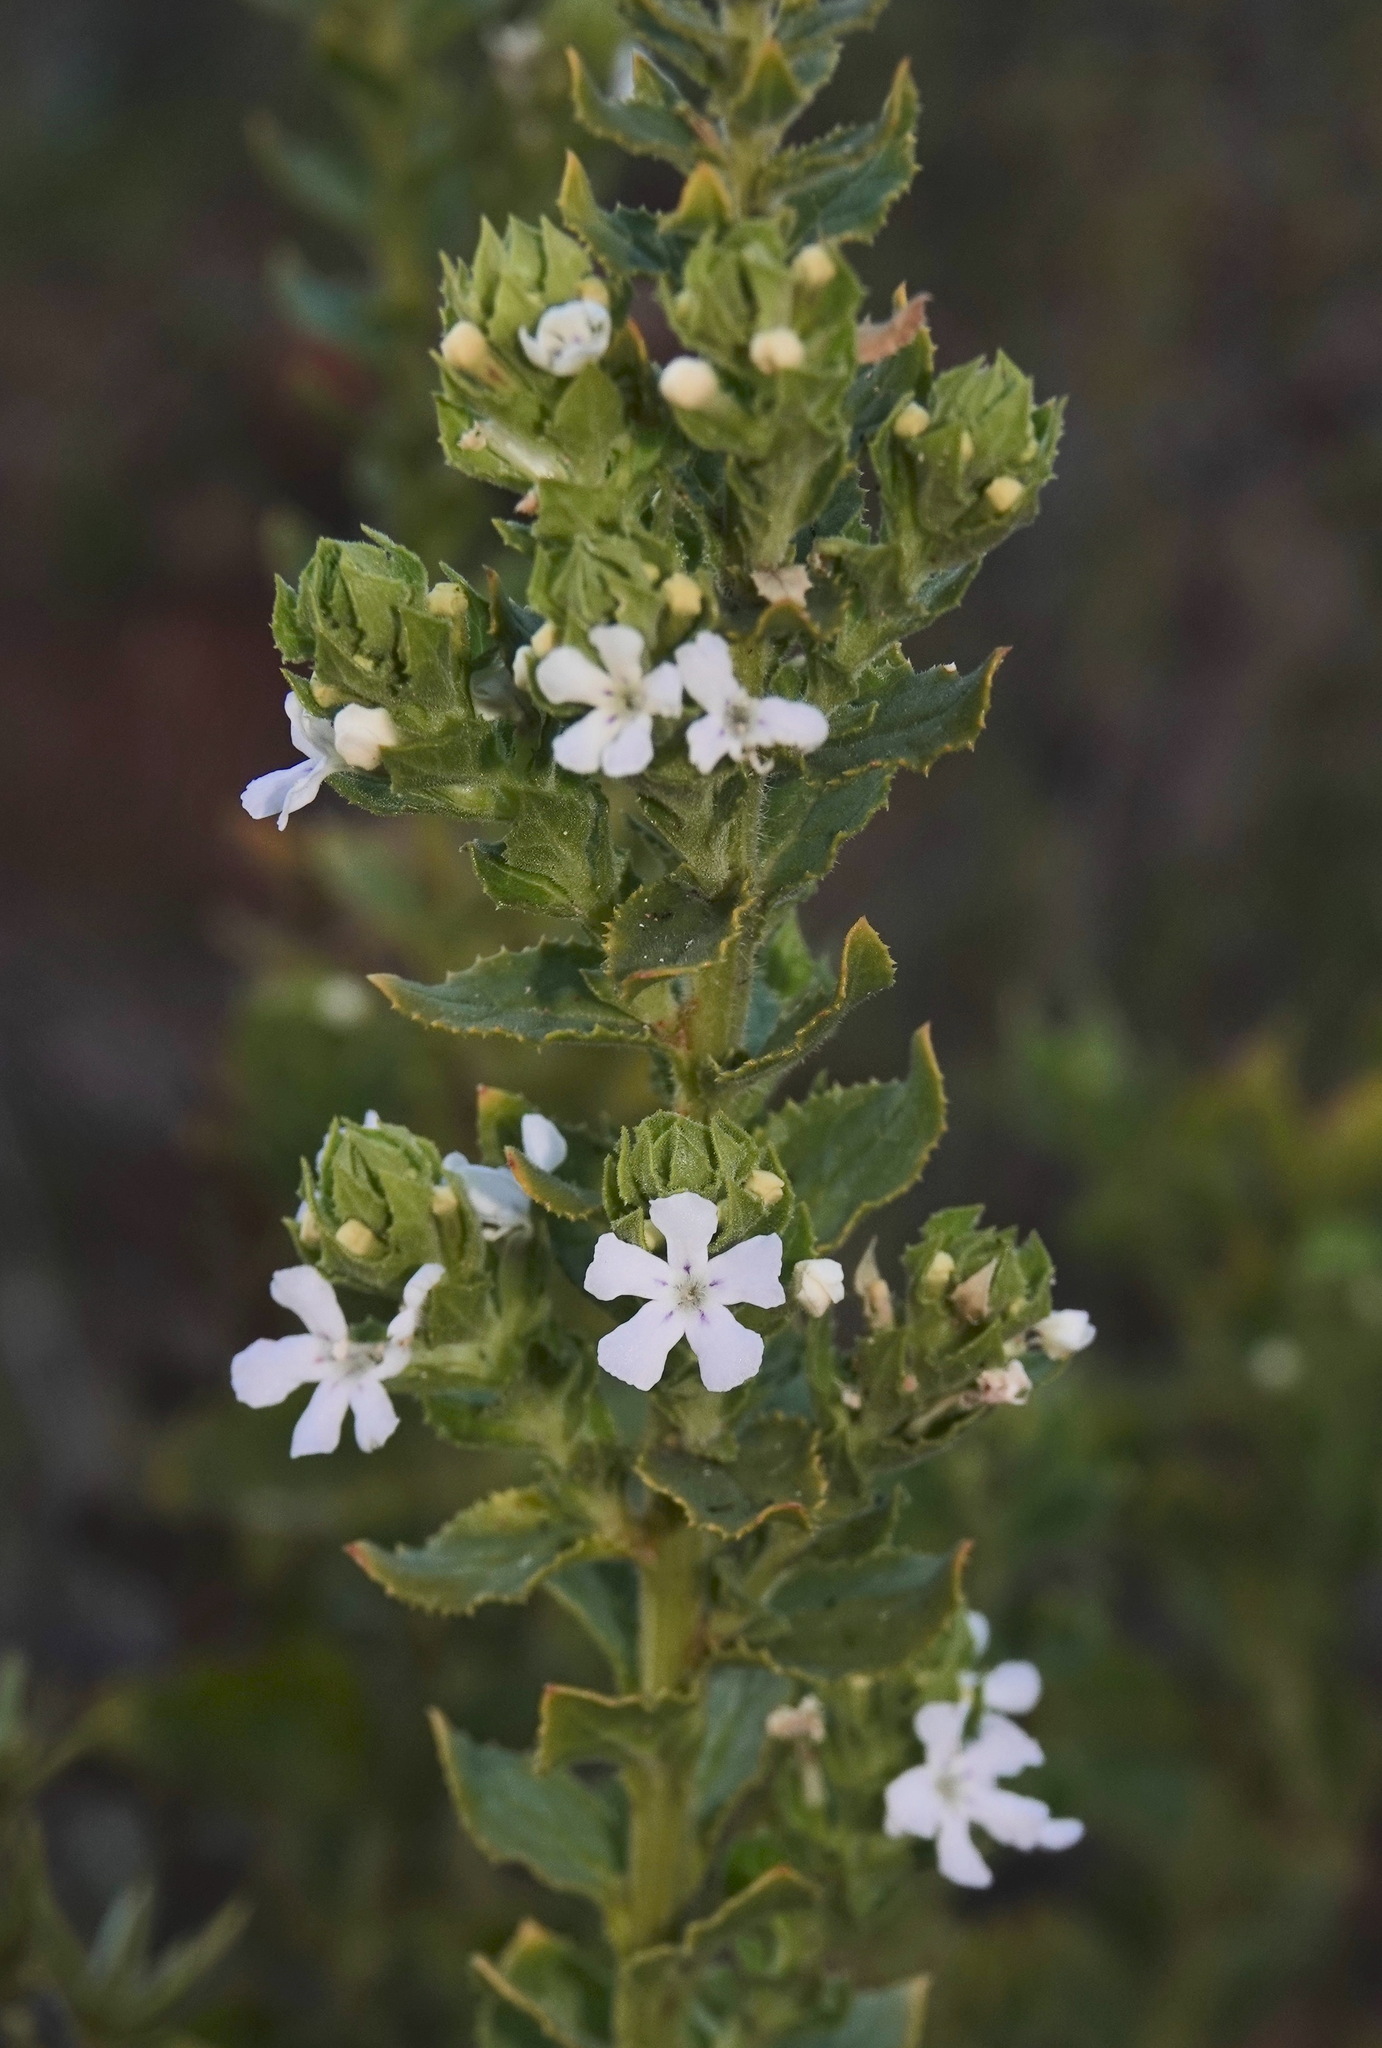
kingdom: Plantae
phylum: Tracheophyta
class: Magnoliopsida
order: Lamiales
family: Scrophulariaceae
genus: Oftia
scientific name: Oftia africana
